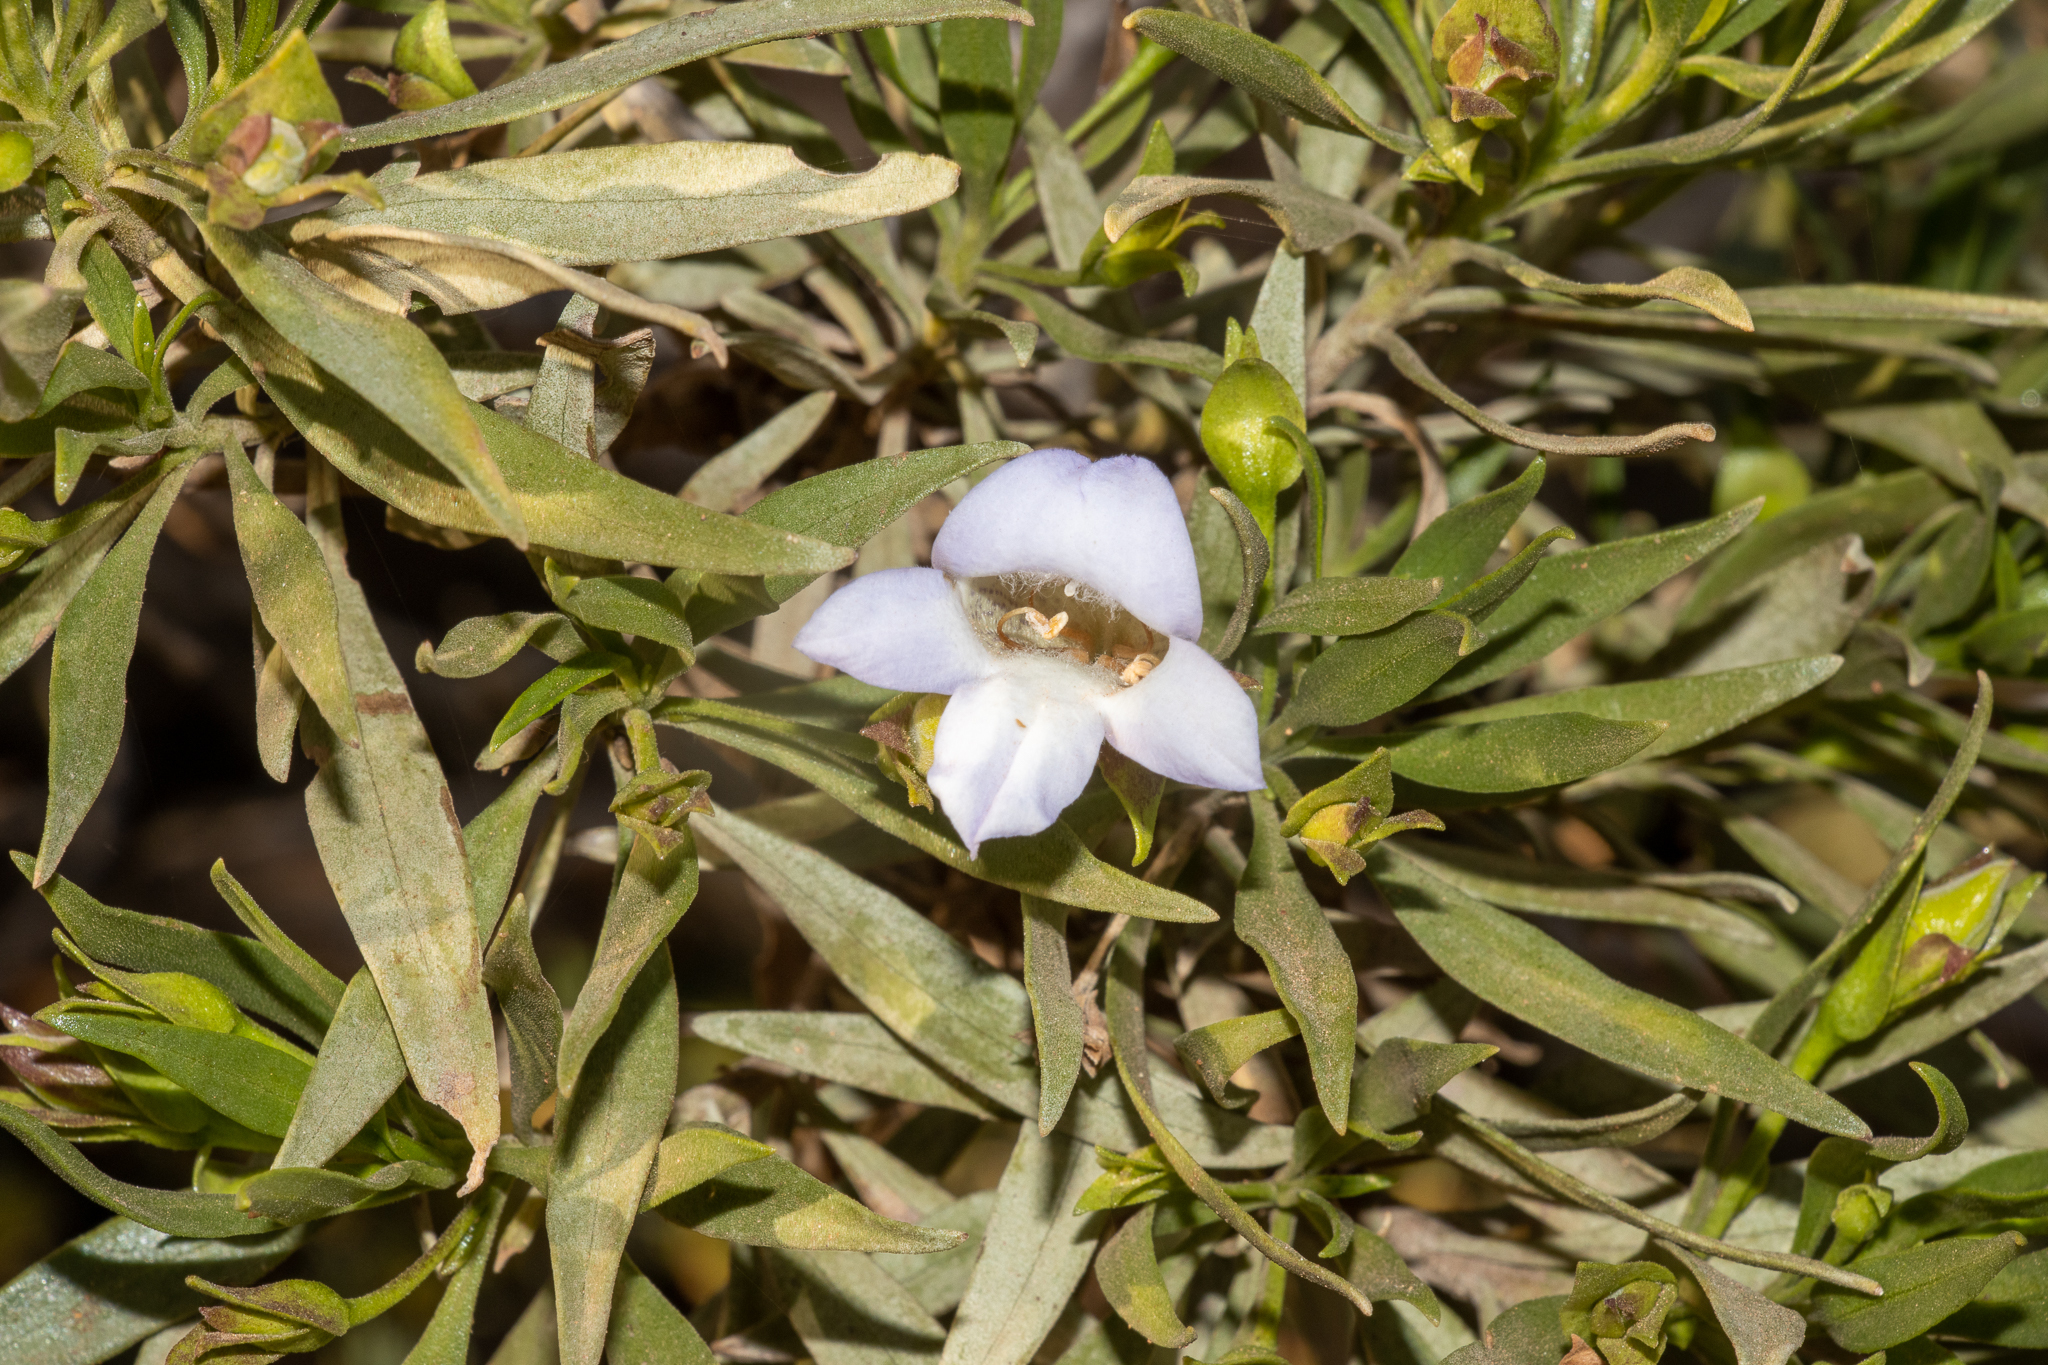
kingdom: Plantae
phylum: Tracheophyta
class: Magnoliopsida
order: Lamiales
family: Scrophulariaceae
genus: Eremophila
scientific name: Eremophila freelingii
